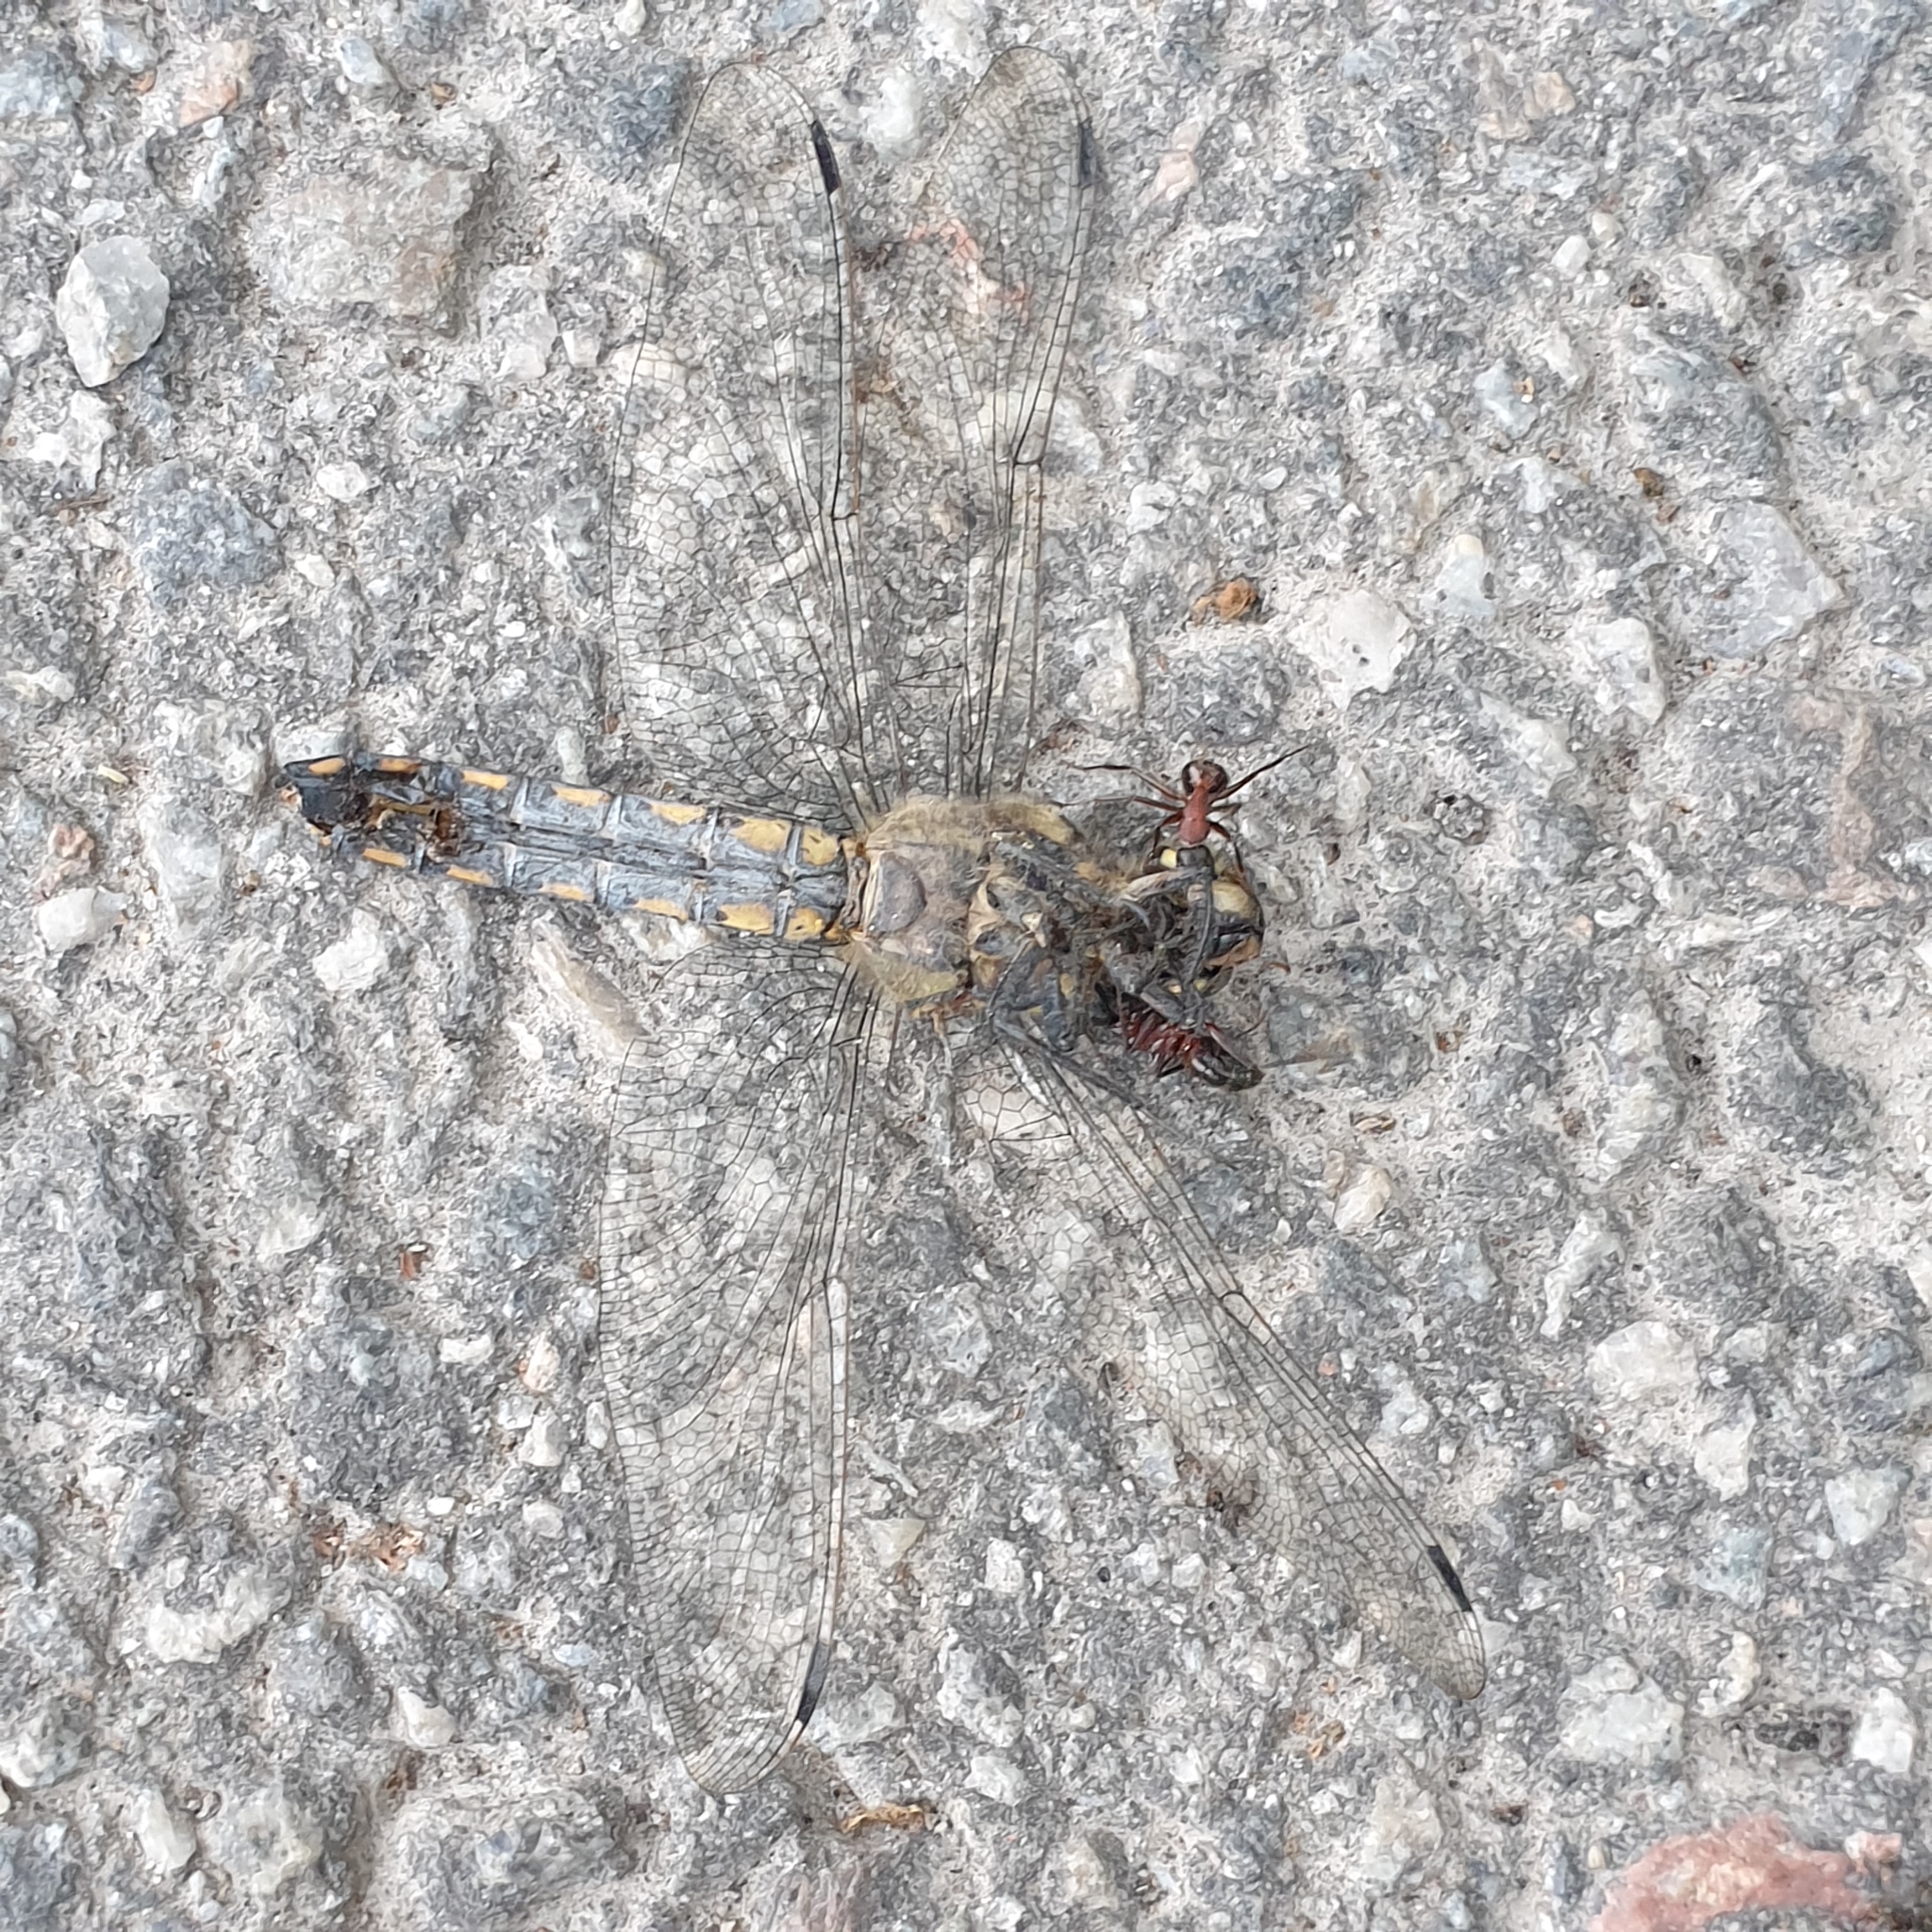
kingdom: Animalia
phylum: Arthropoda
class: Insecta
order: Odonata
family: Libellulidae
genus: Orthetrum
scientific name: Orthetrum cancellatum
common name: Black-tailed skimmer
